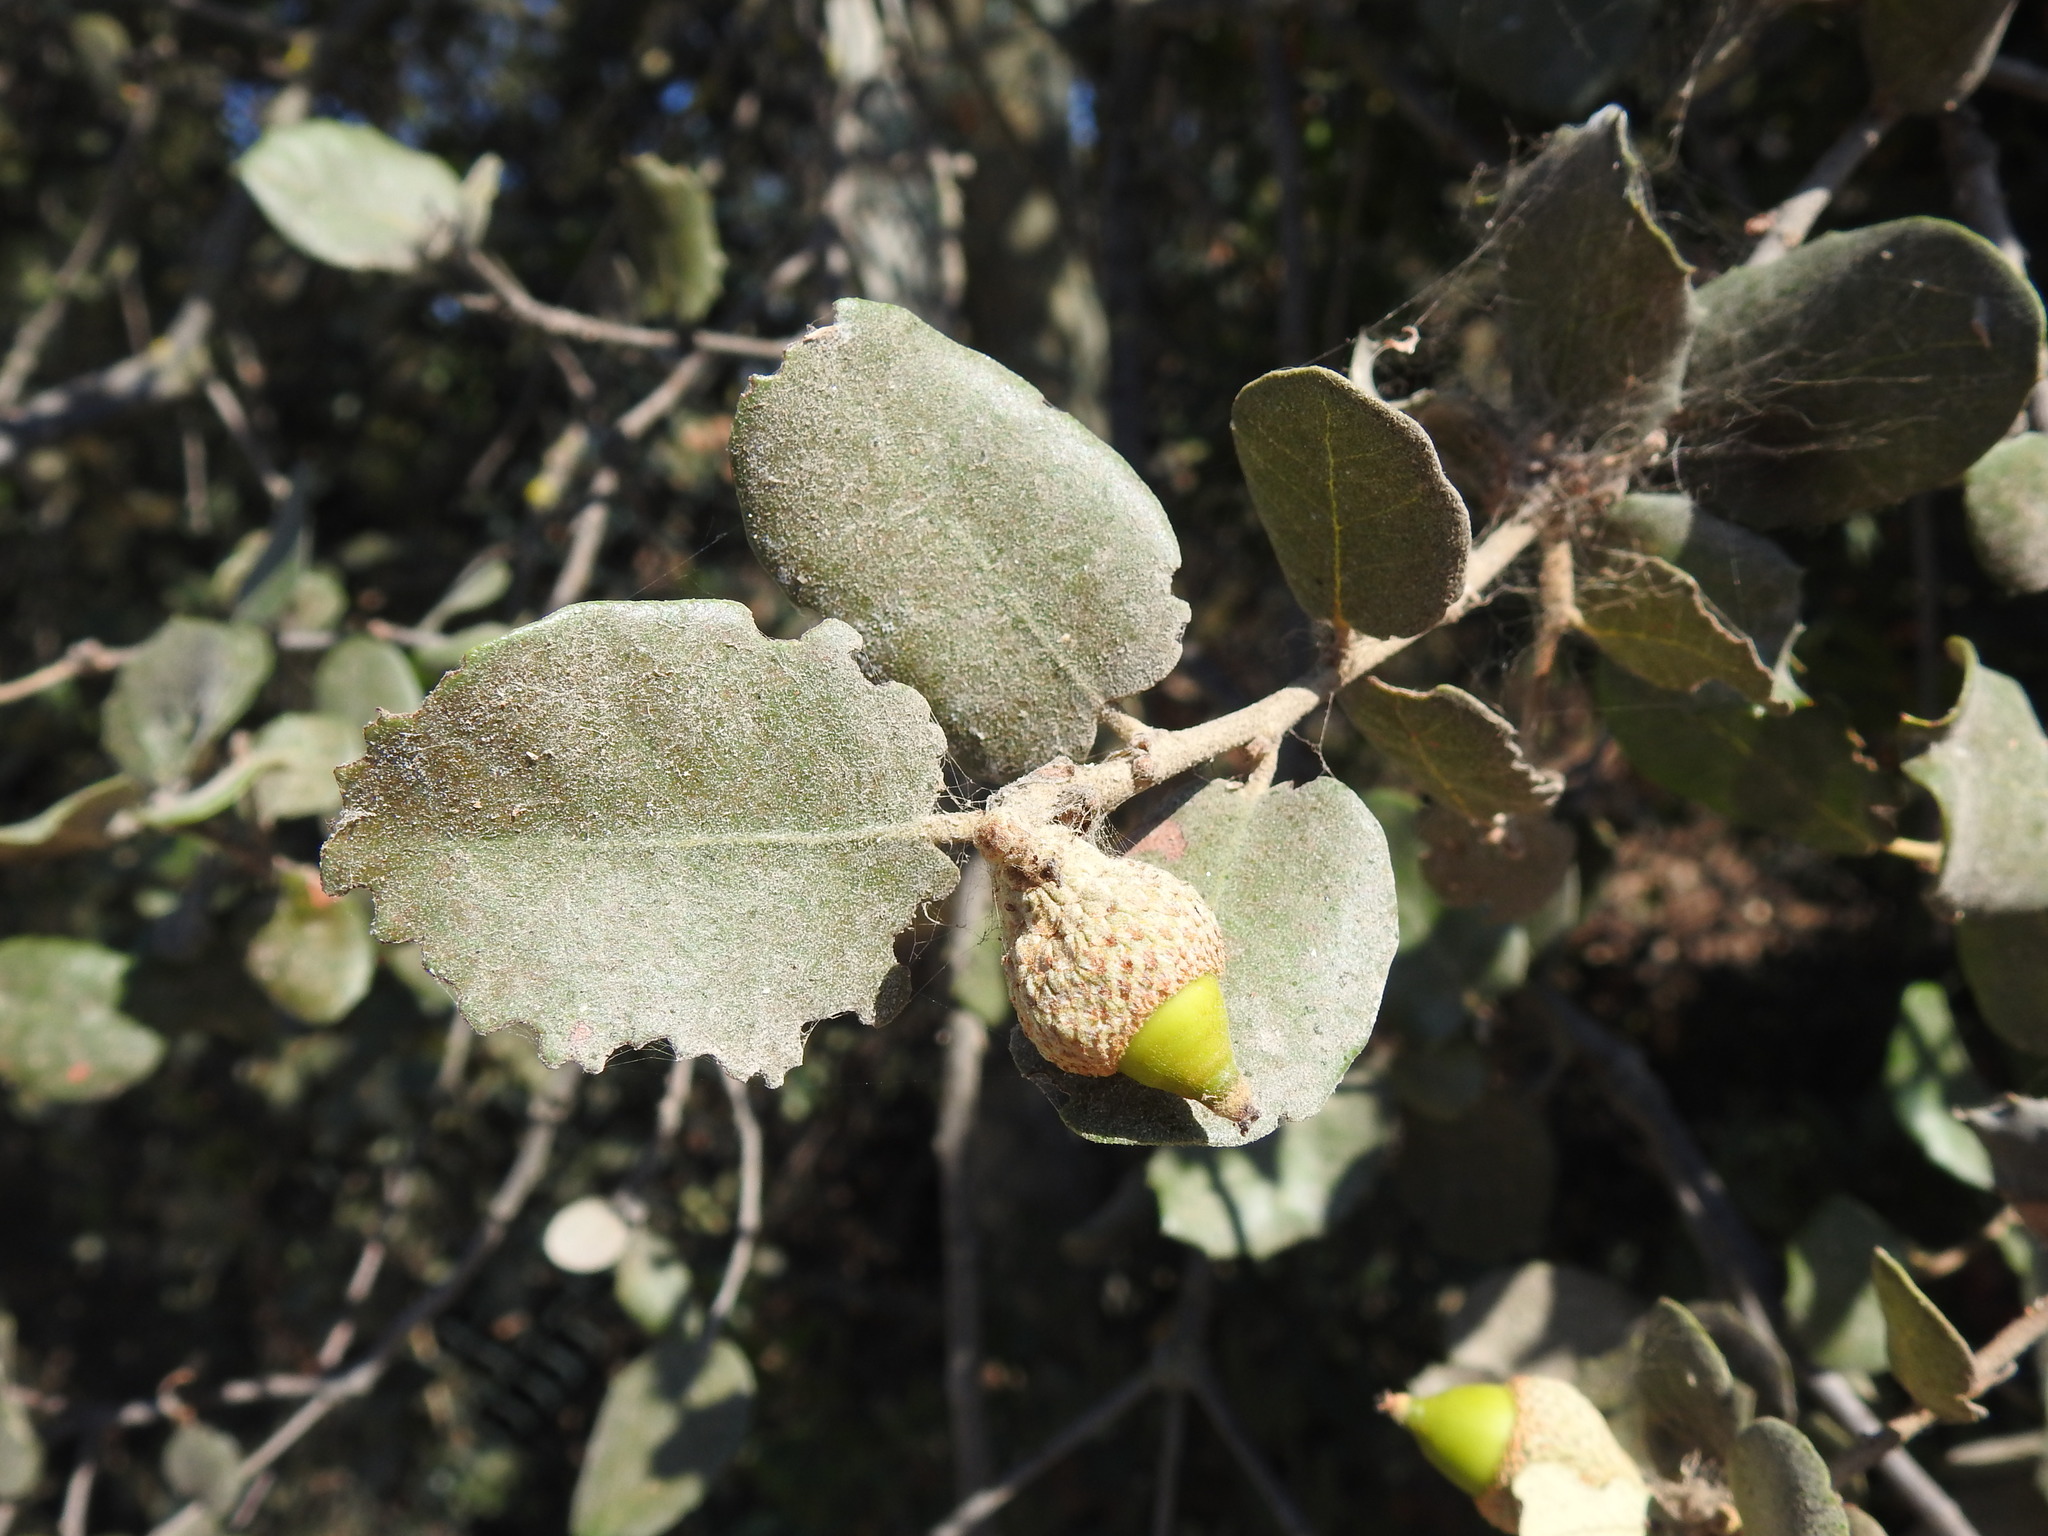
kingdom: Plantae
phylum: Tracheophyta
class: Magnoliopsida
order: Fagales
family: Fagaceae
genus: Quercus
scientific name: Quercus rotundifolia
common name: Holm oak
